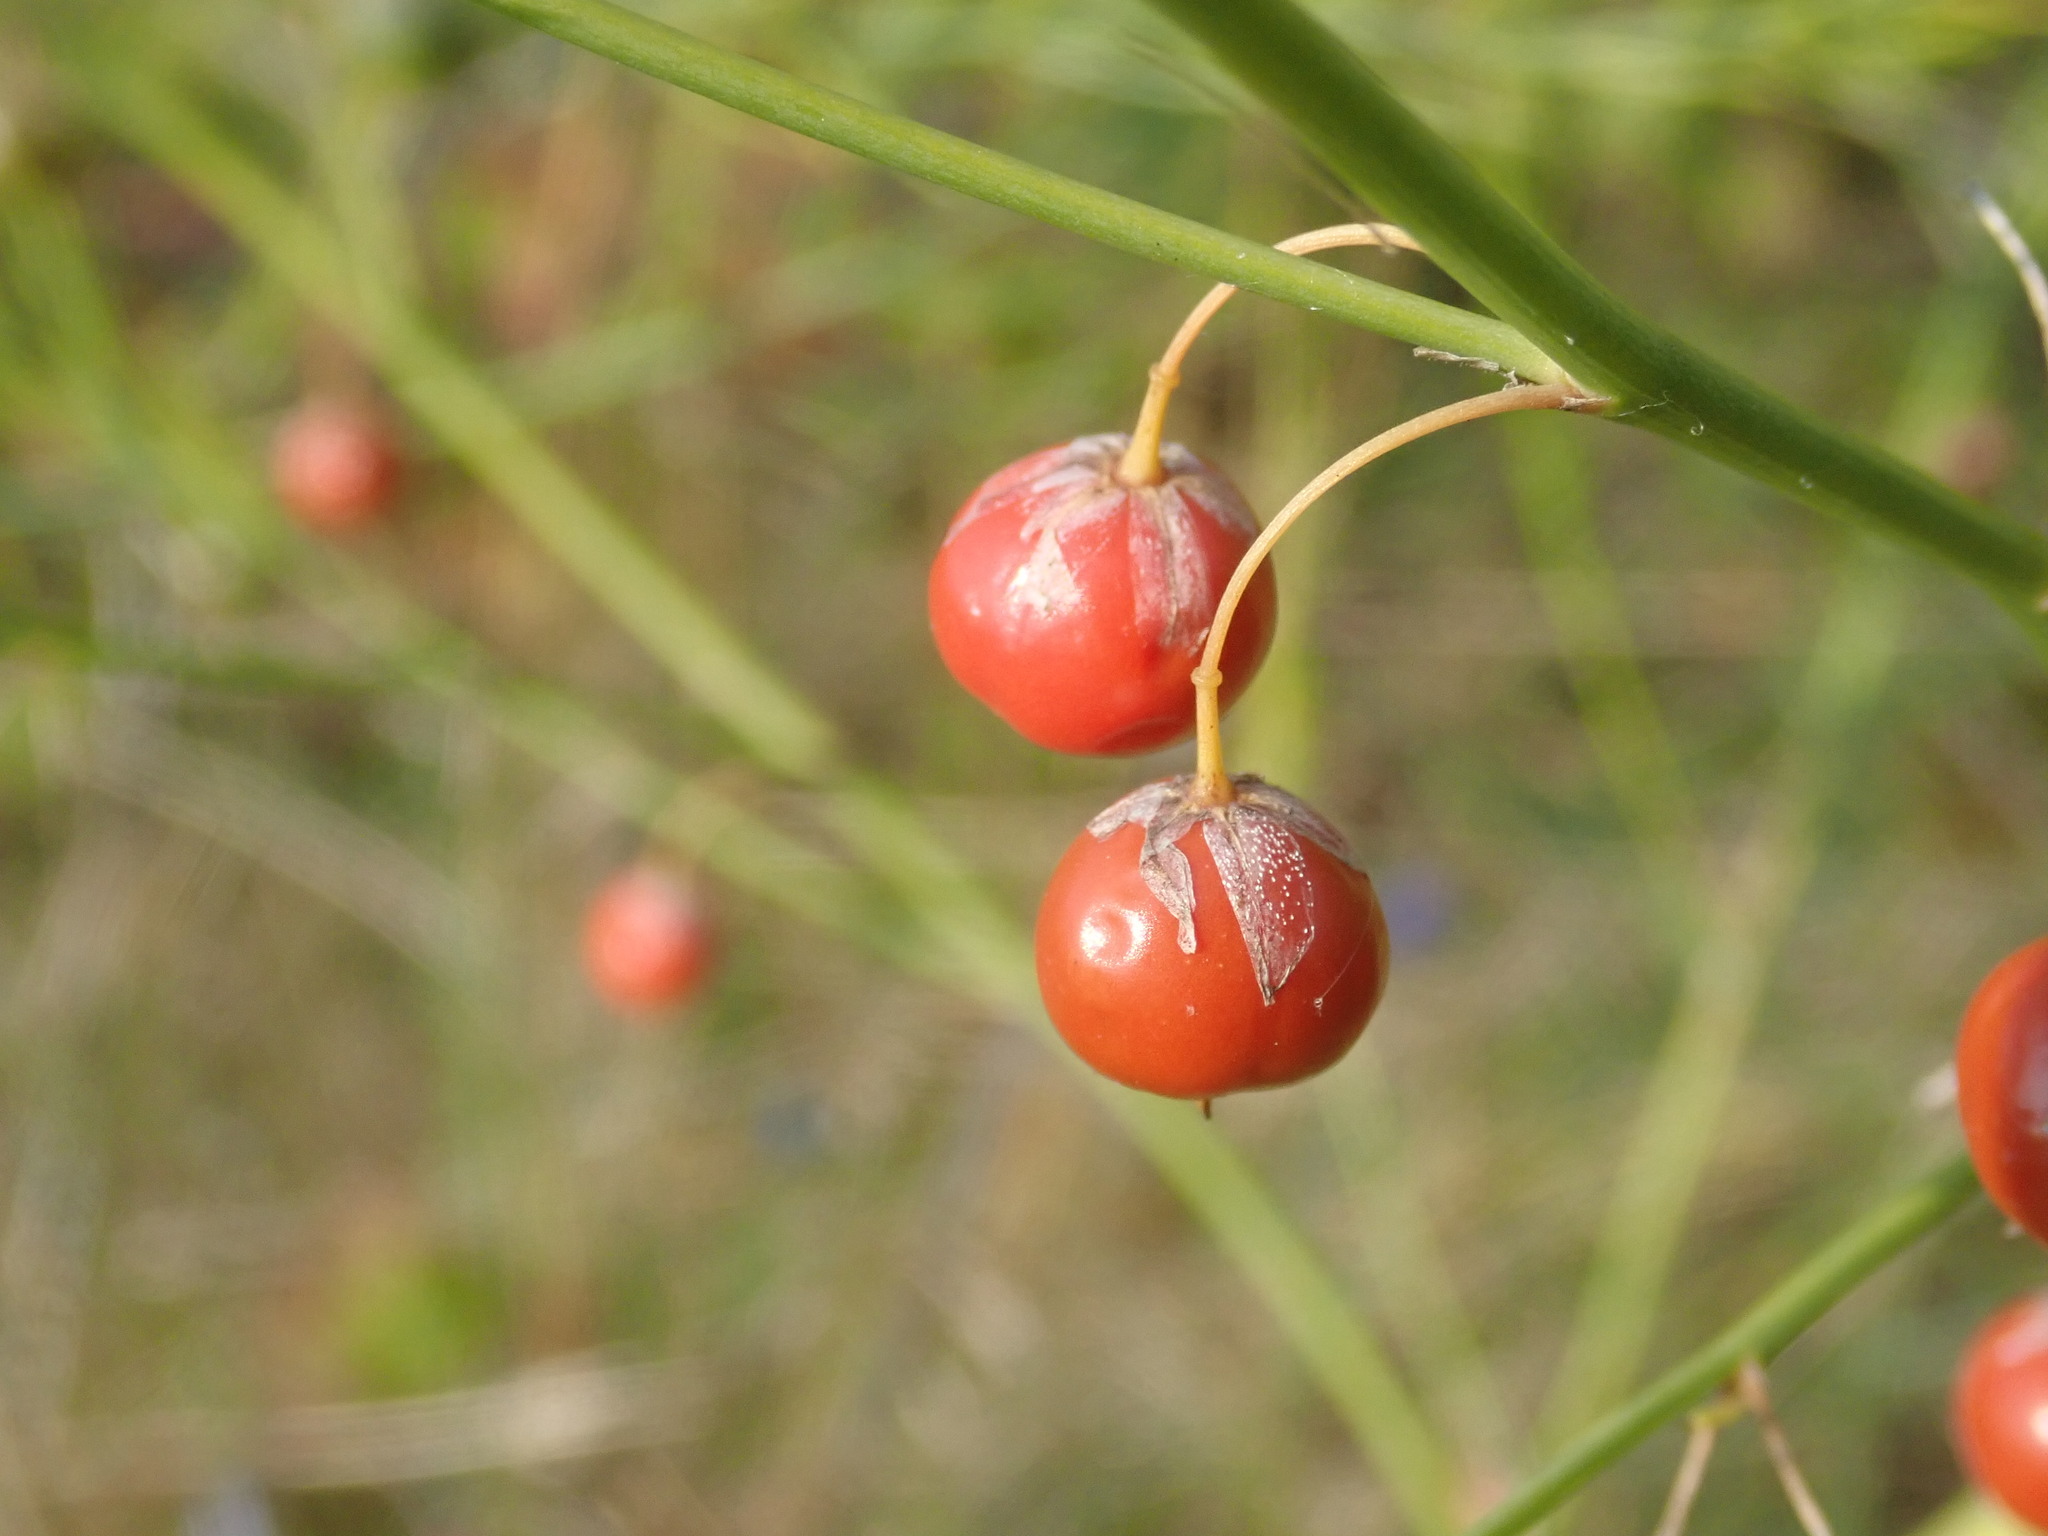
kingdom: Plantae
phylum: Tracheophyta
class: Liliopsida
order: Asparagales
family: Asparagaceae
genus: Asparagus
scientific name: Asparagus officinalis
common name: Garden asparagus
